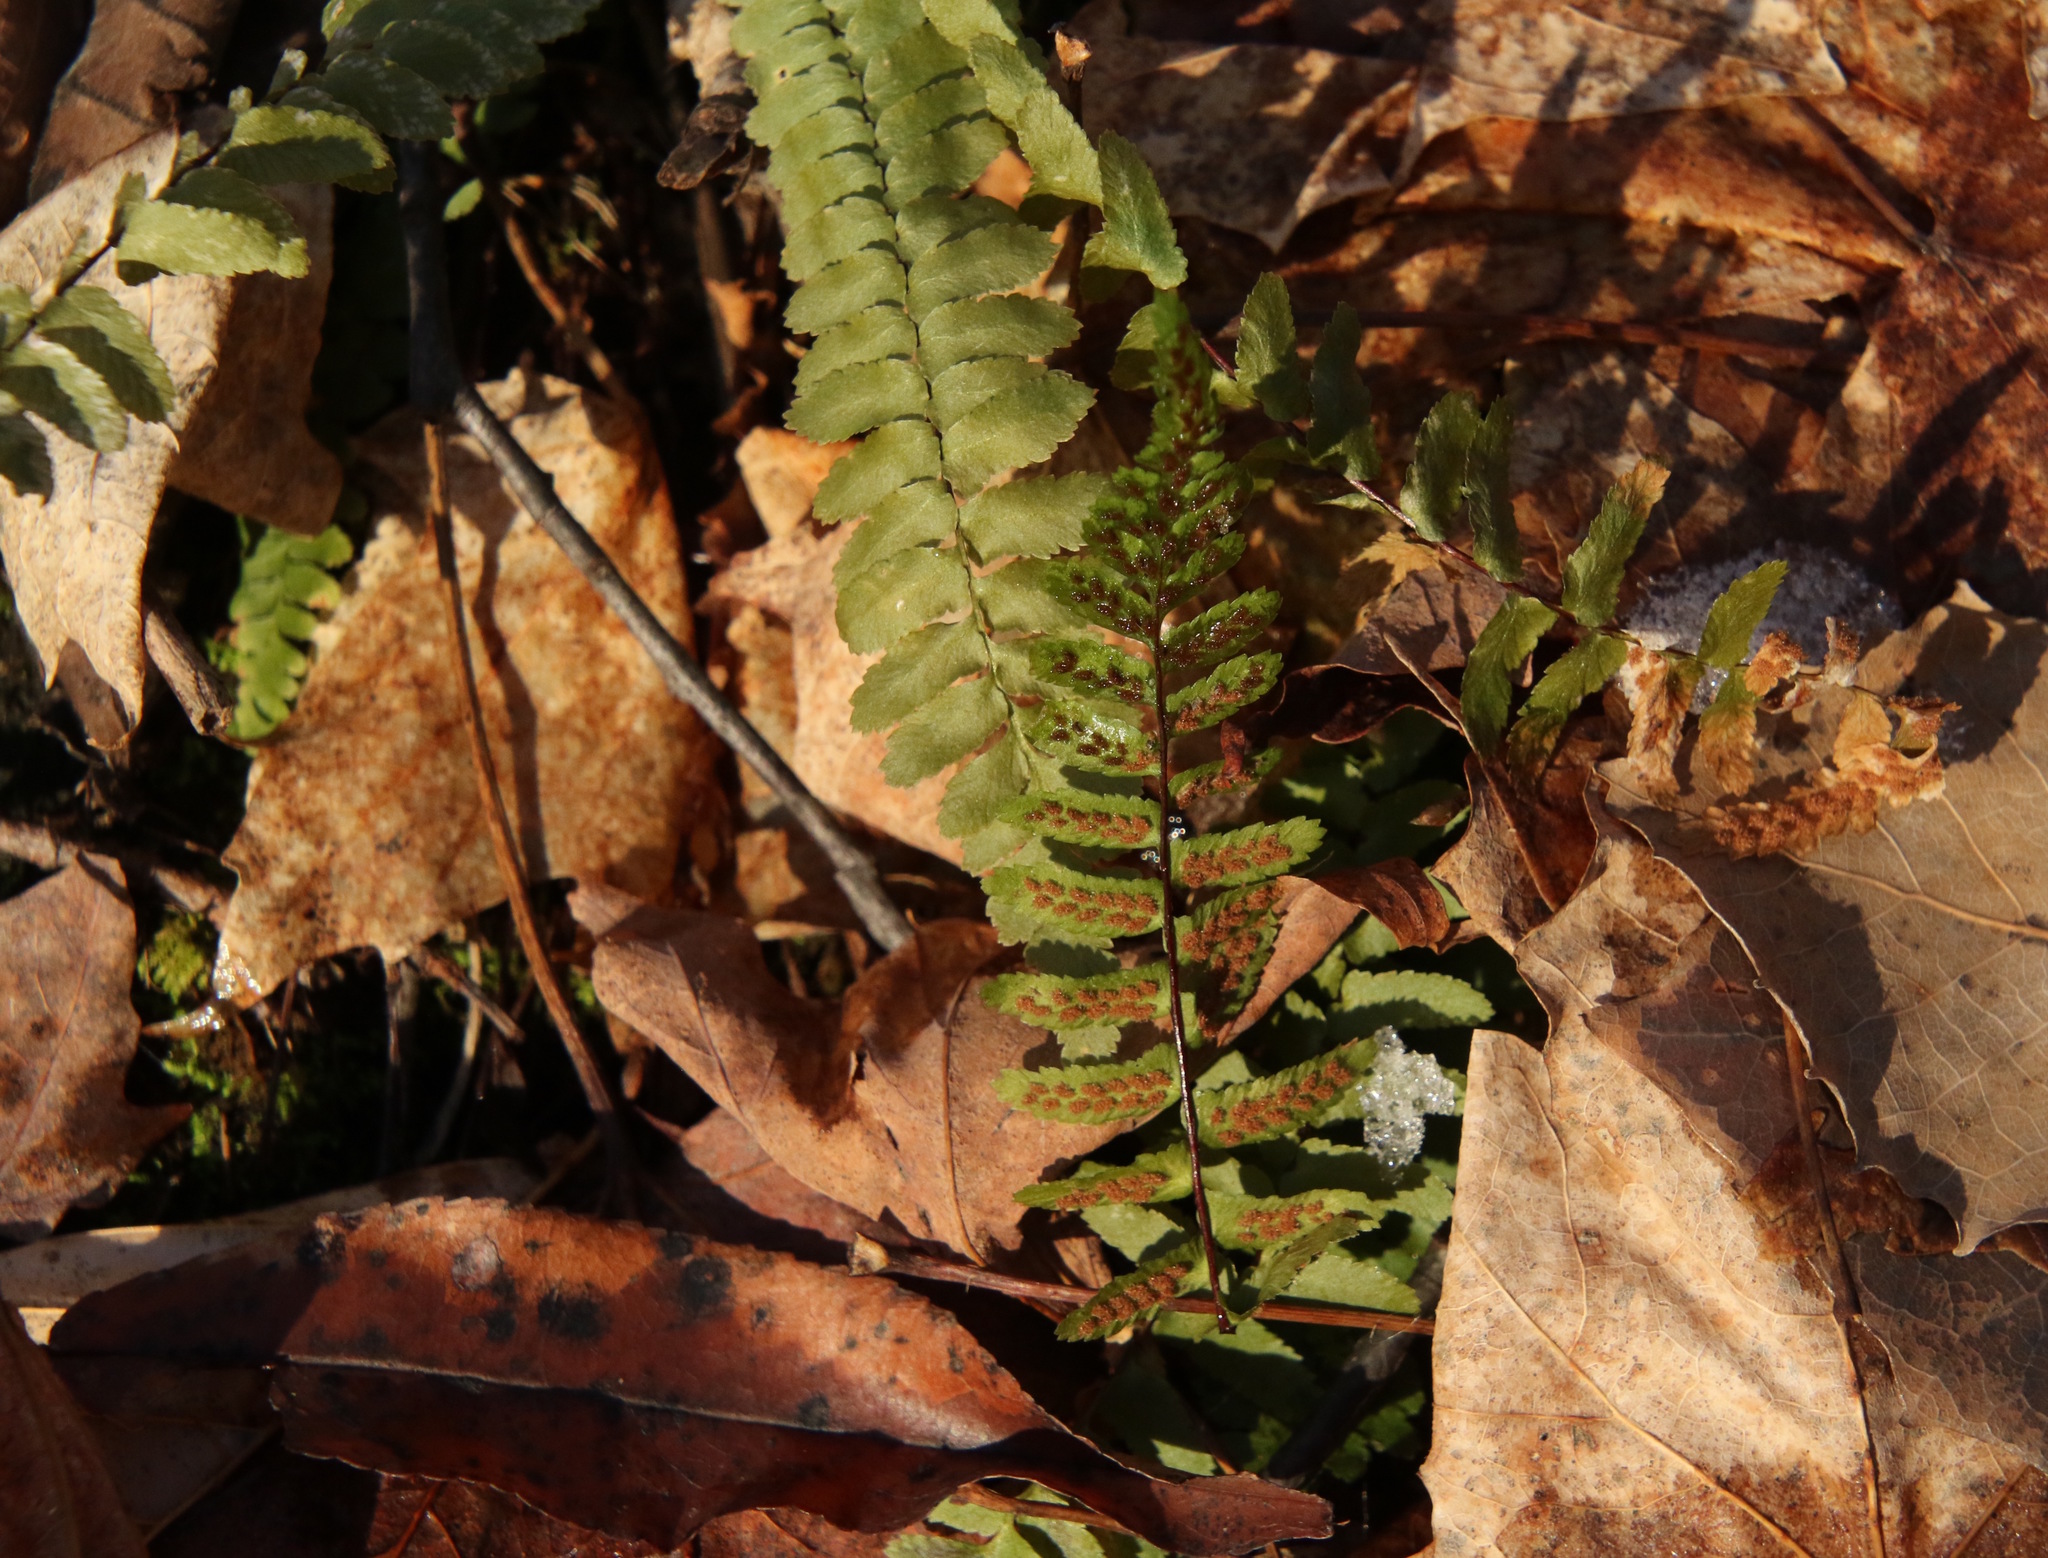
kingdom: Plantae
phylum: Tracheophyta
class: Polypodiopsida
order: Polypodiales
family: Aspleniaceae
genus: Asplenium
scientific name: Asplenium platyneuron
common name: Ebony spleenwort
